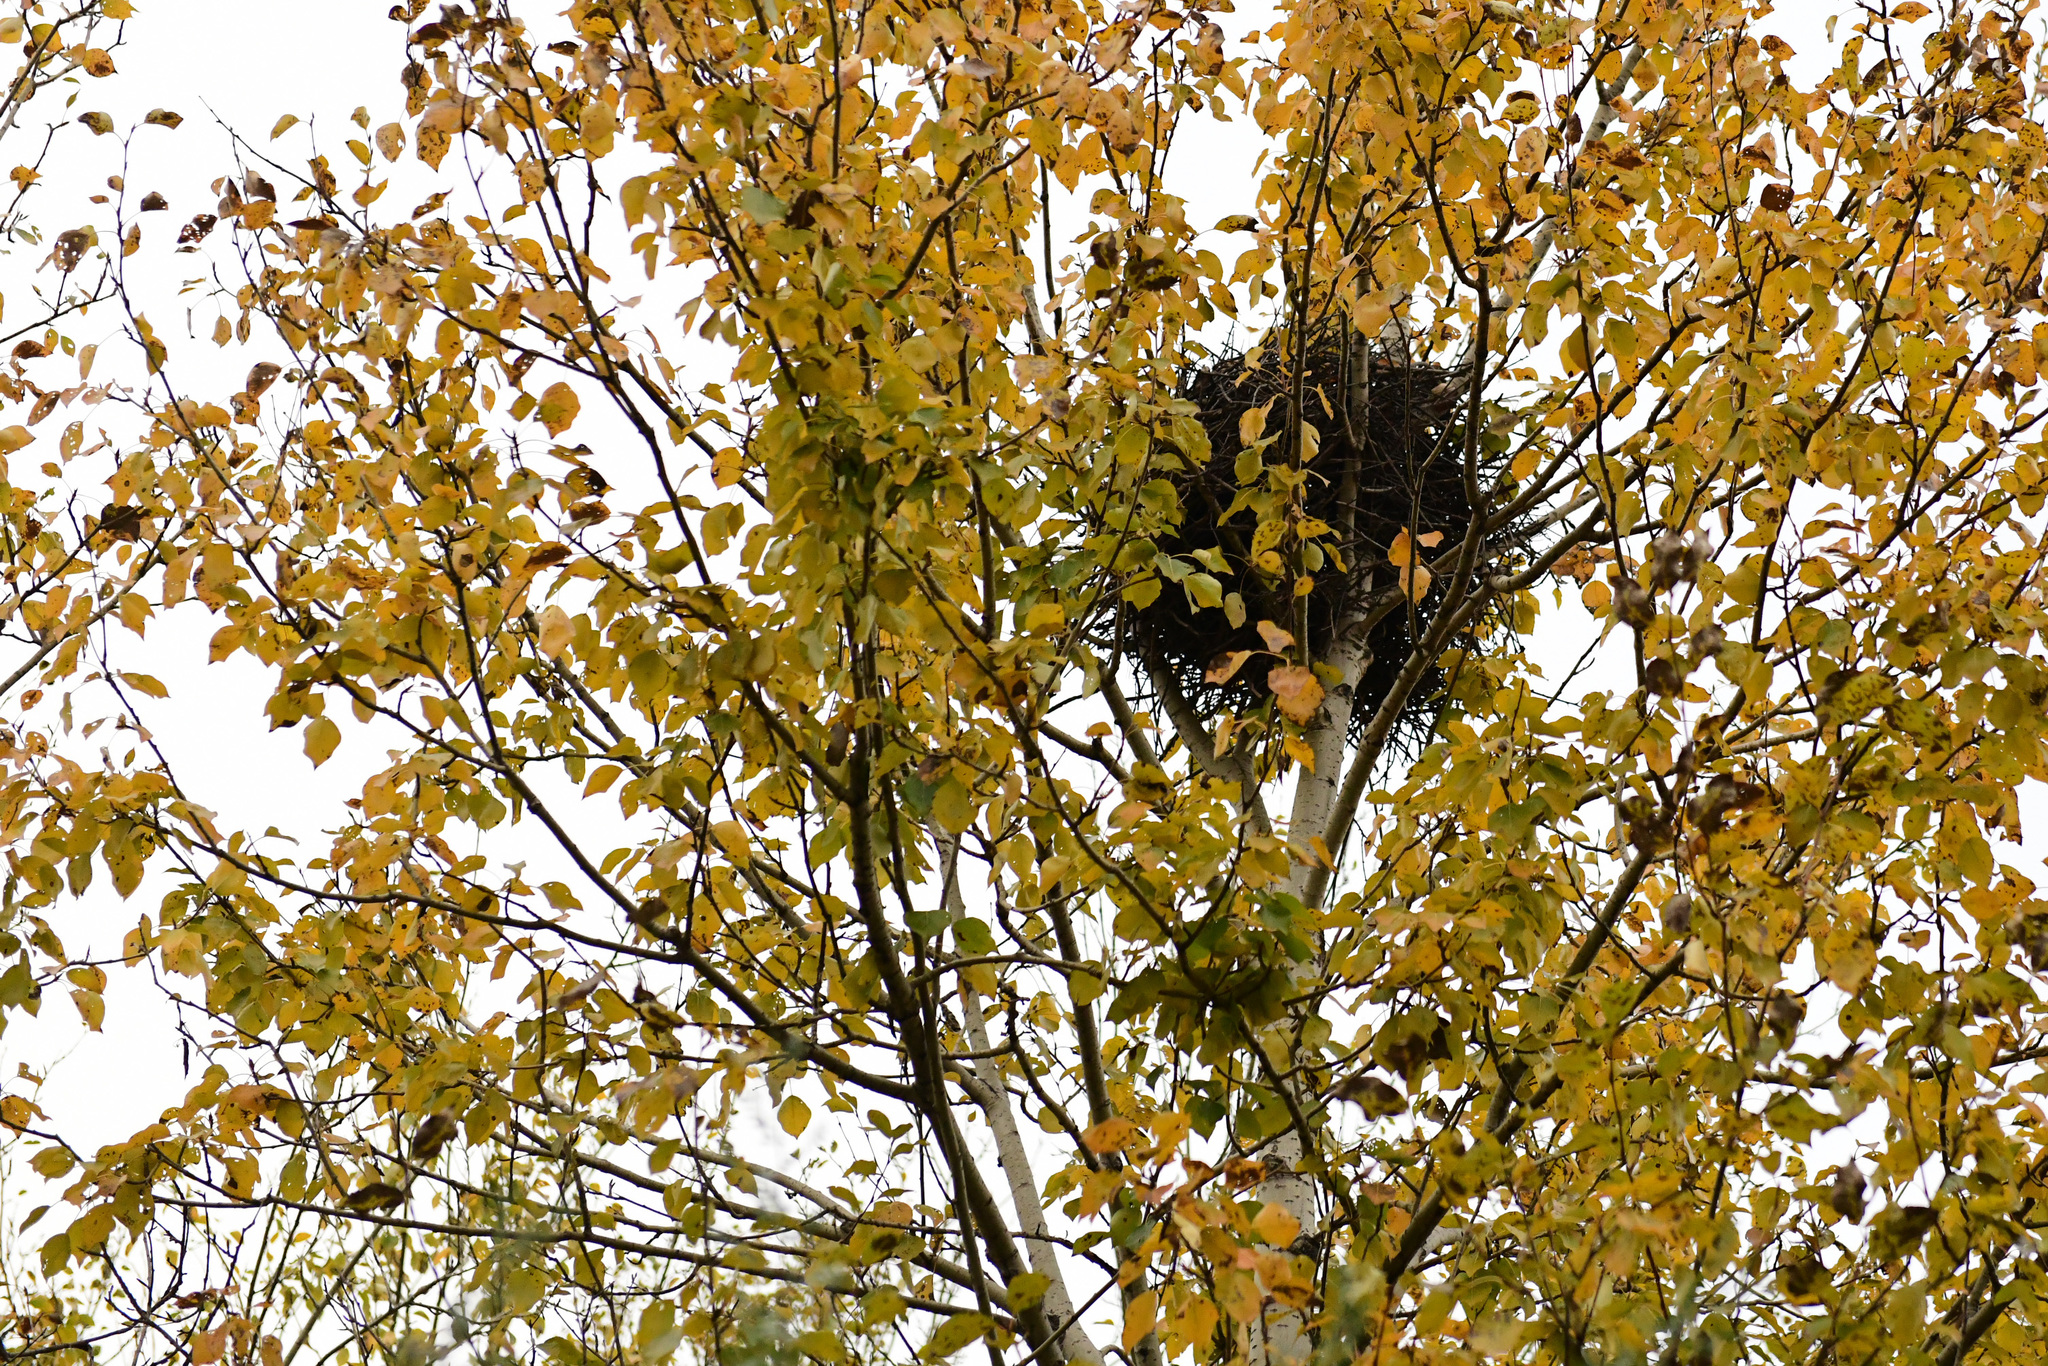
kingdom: Animalia
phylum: Chordata
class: Aves
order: Passeriformes
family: Corvidae
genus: Pica
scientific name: Pica serica
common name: Oriental magpie
